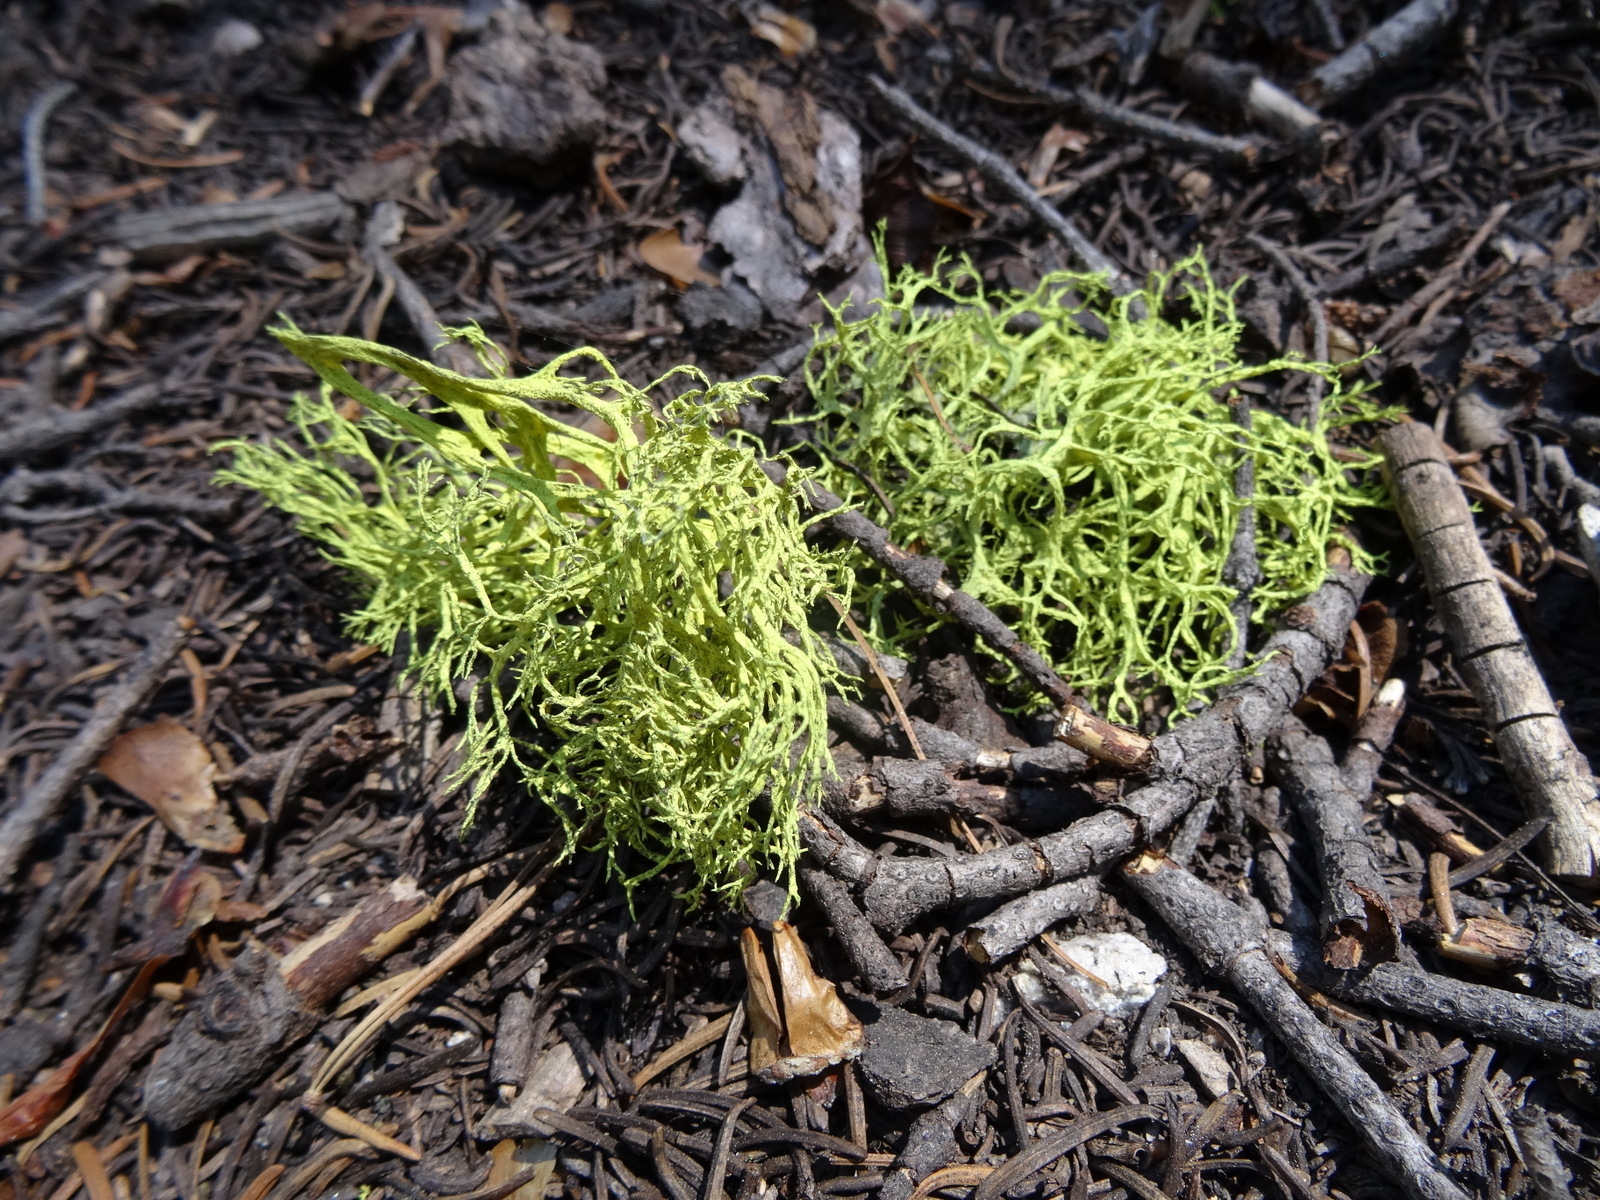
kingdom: Fungi
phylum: Ascomycota
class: Lecanoromycetes
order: Lecanorales
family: Parmeliaceae
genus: Letharia
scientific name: Letharia vulpina
